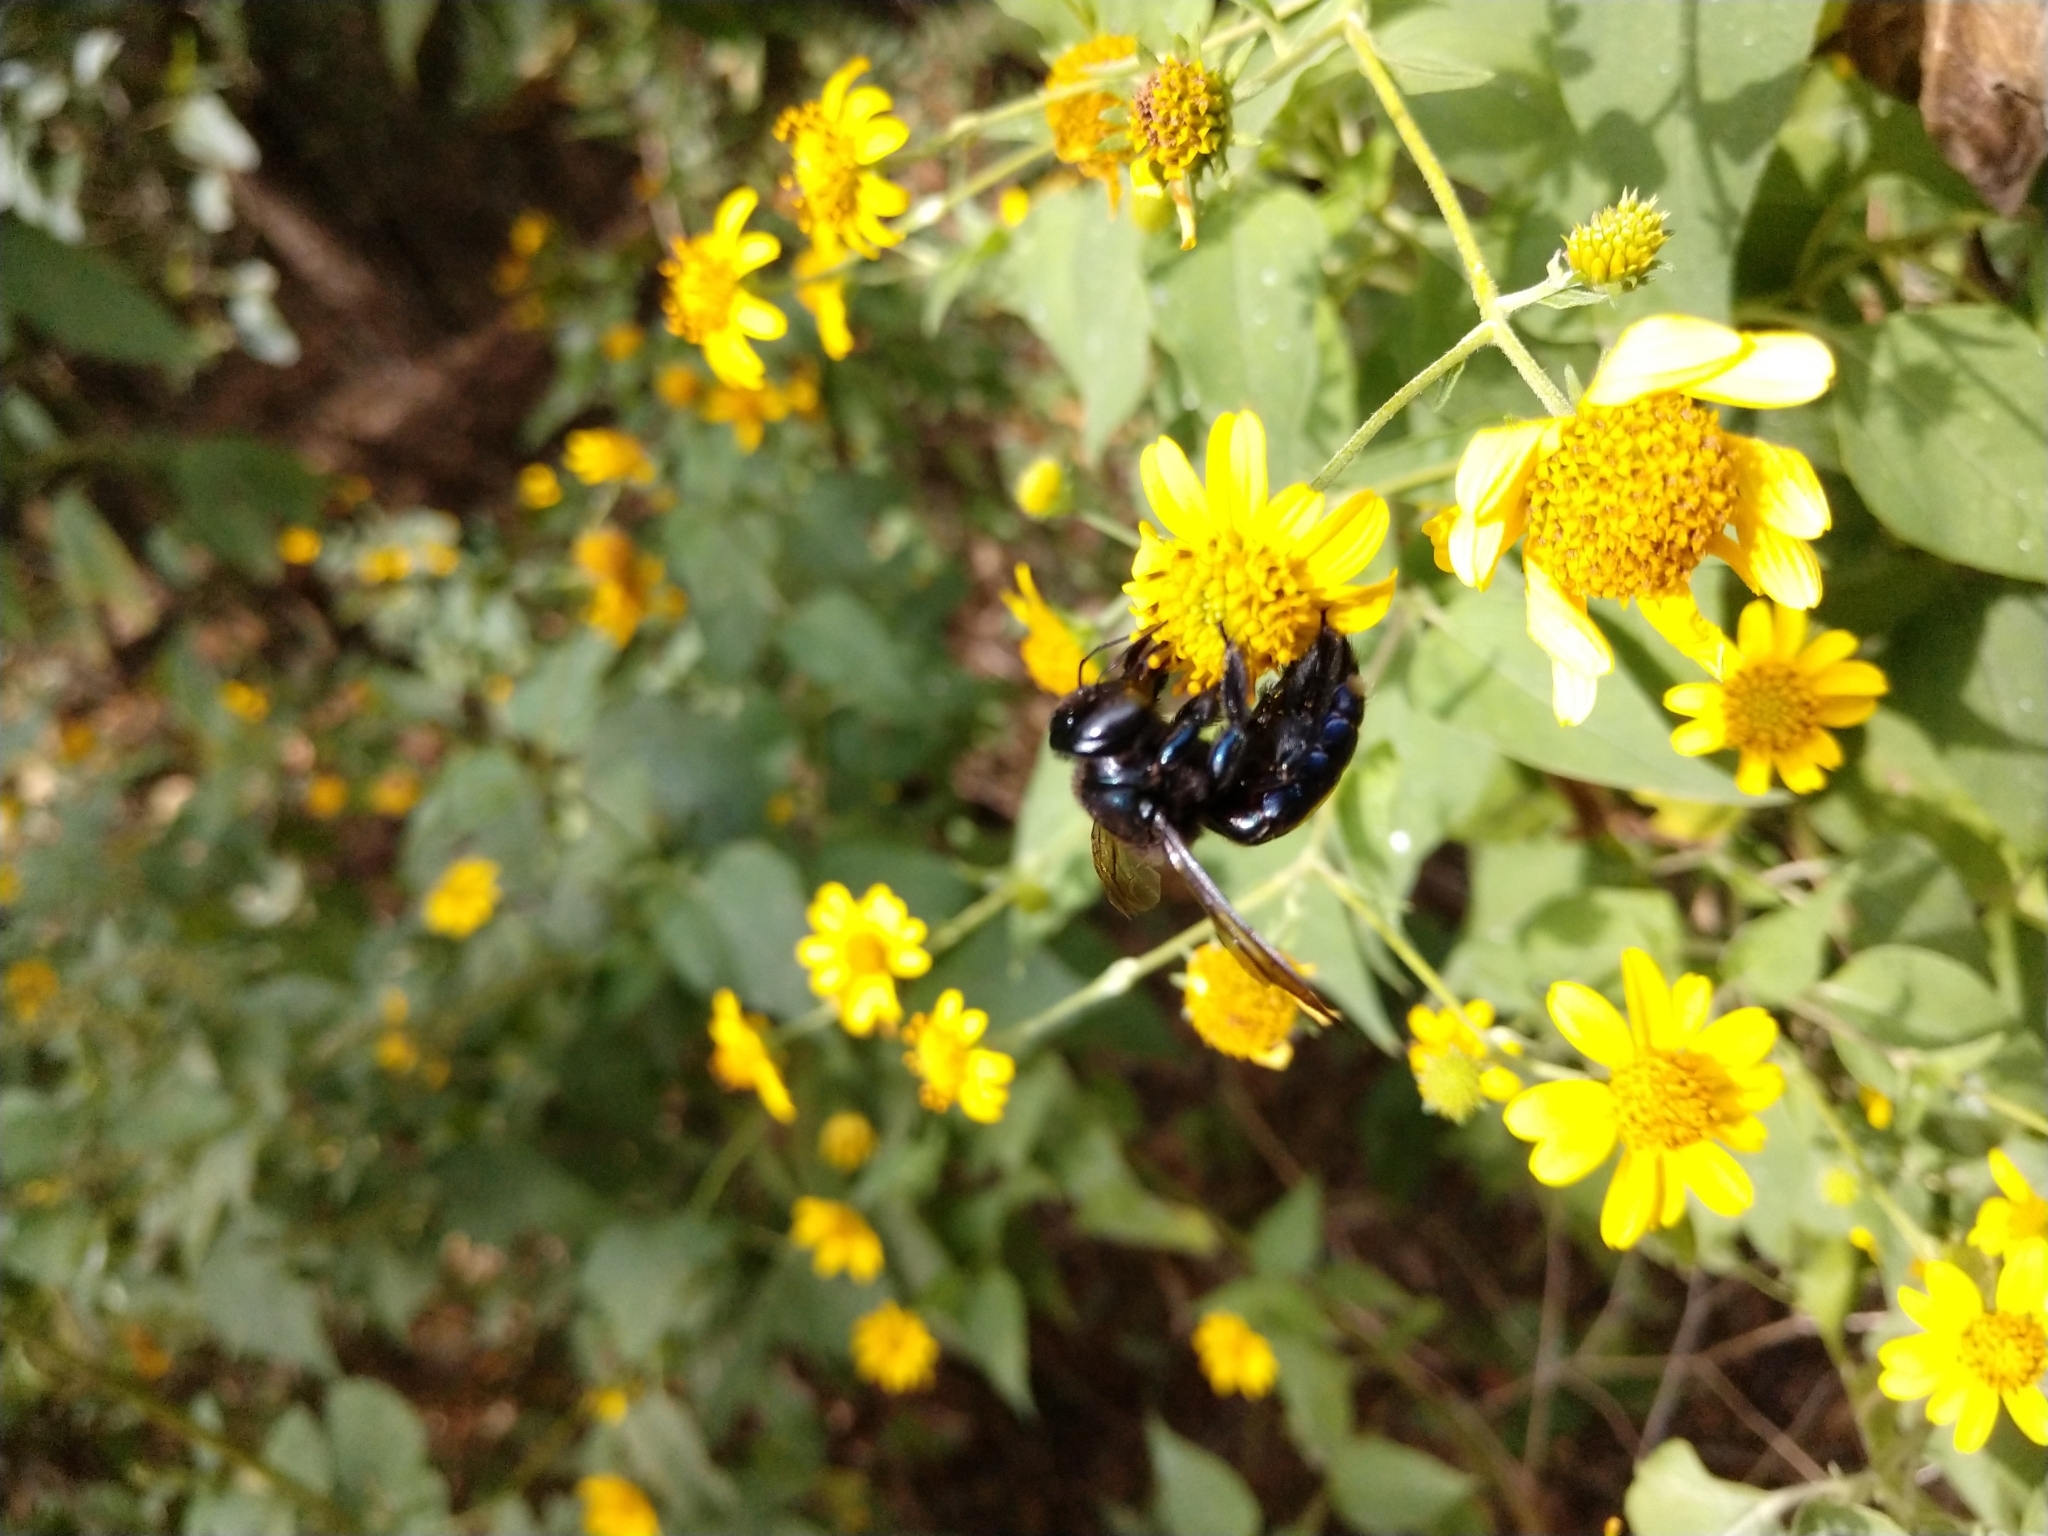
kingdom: Animalia
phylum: Arthropoda
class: Insecta
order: Hymenoptera
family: Apidae
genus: Xylocopa
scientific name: Xylocopa micans
